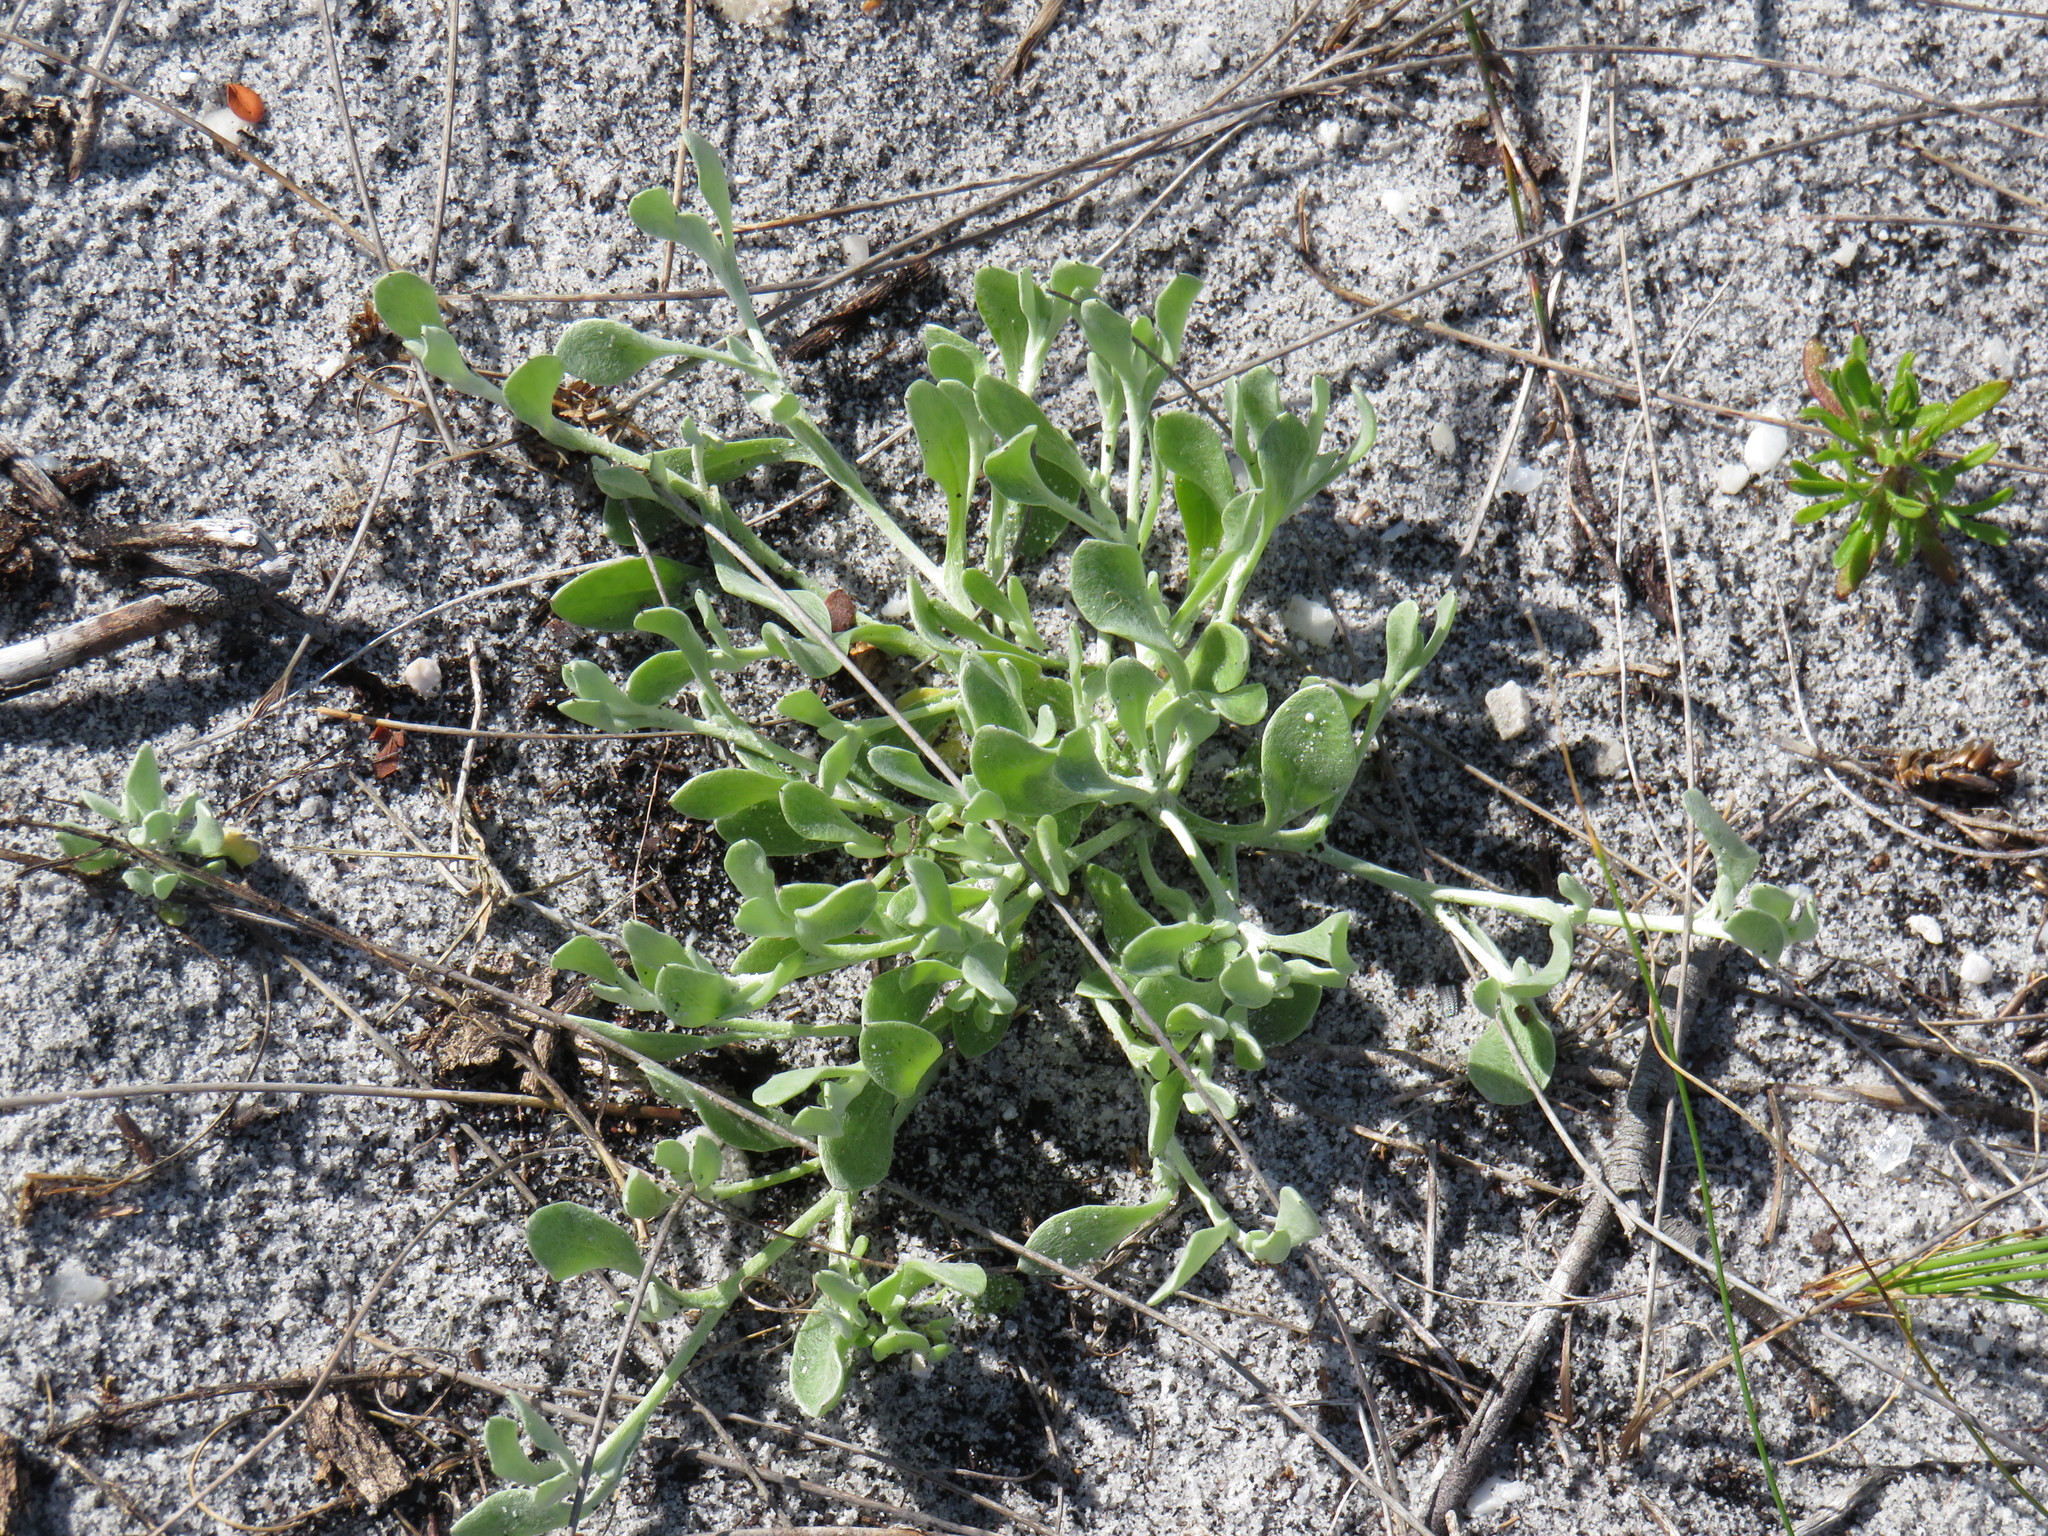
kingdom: Plantae
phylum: Tracheophyta
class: Magnoliopsida
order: Asterales
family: Asteraceae
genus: Helichrysum
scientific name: Helichrysum indicum
